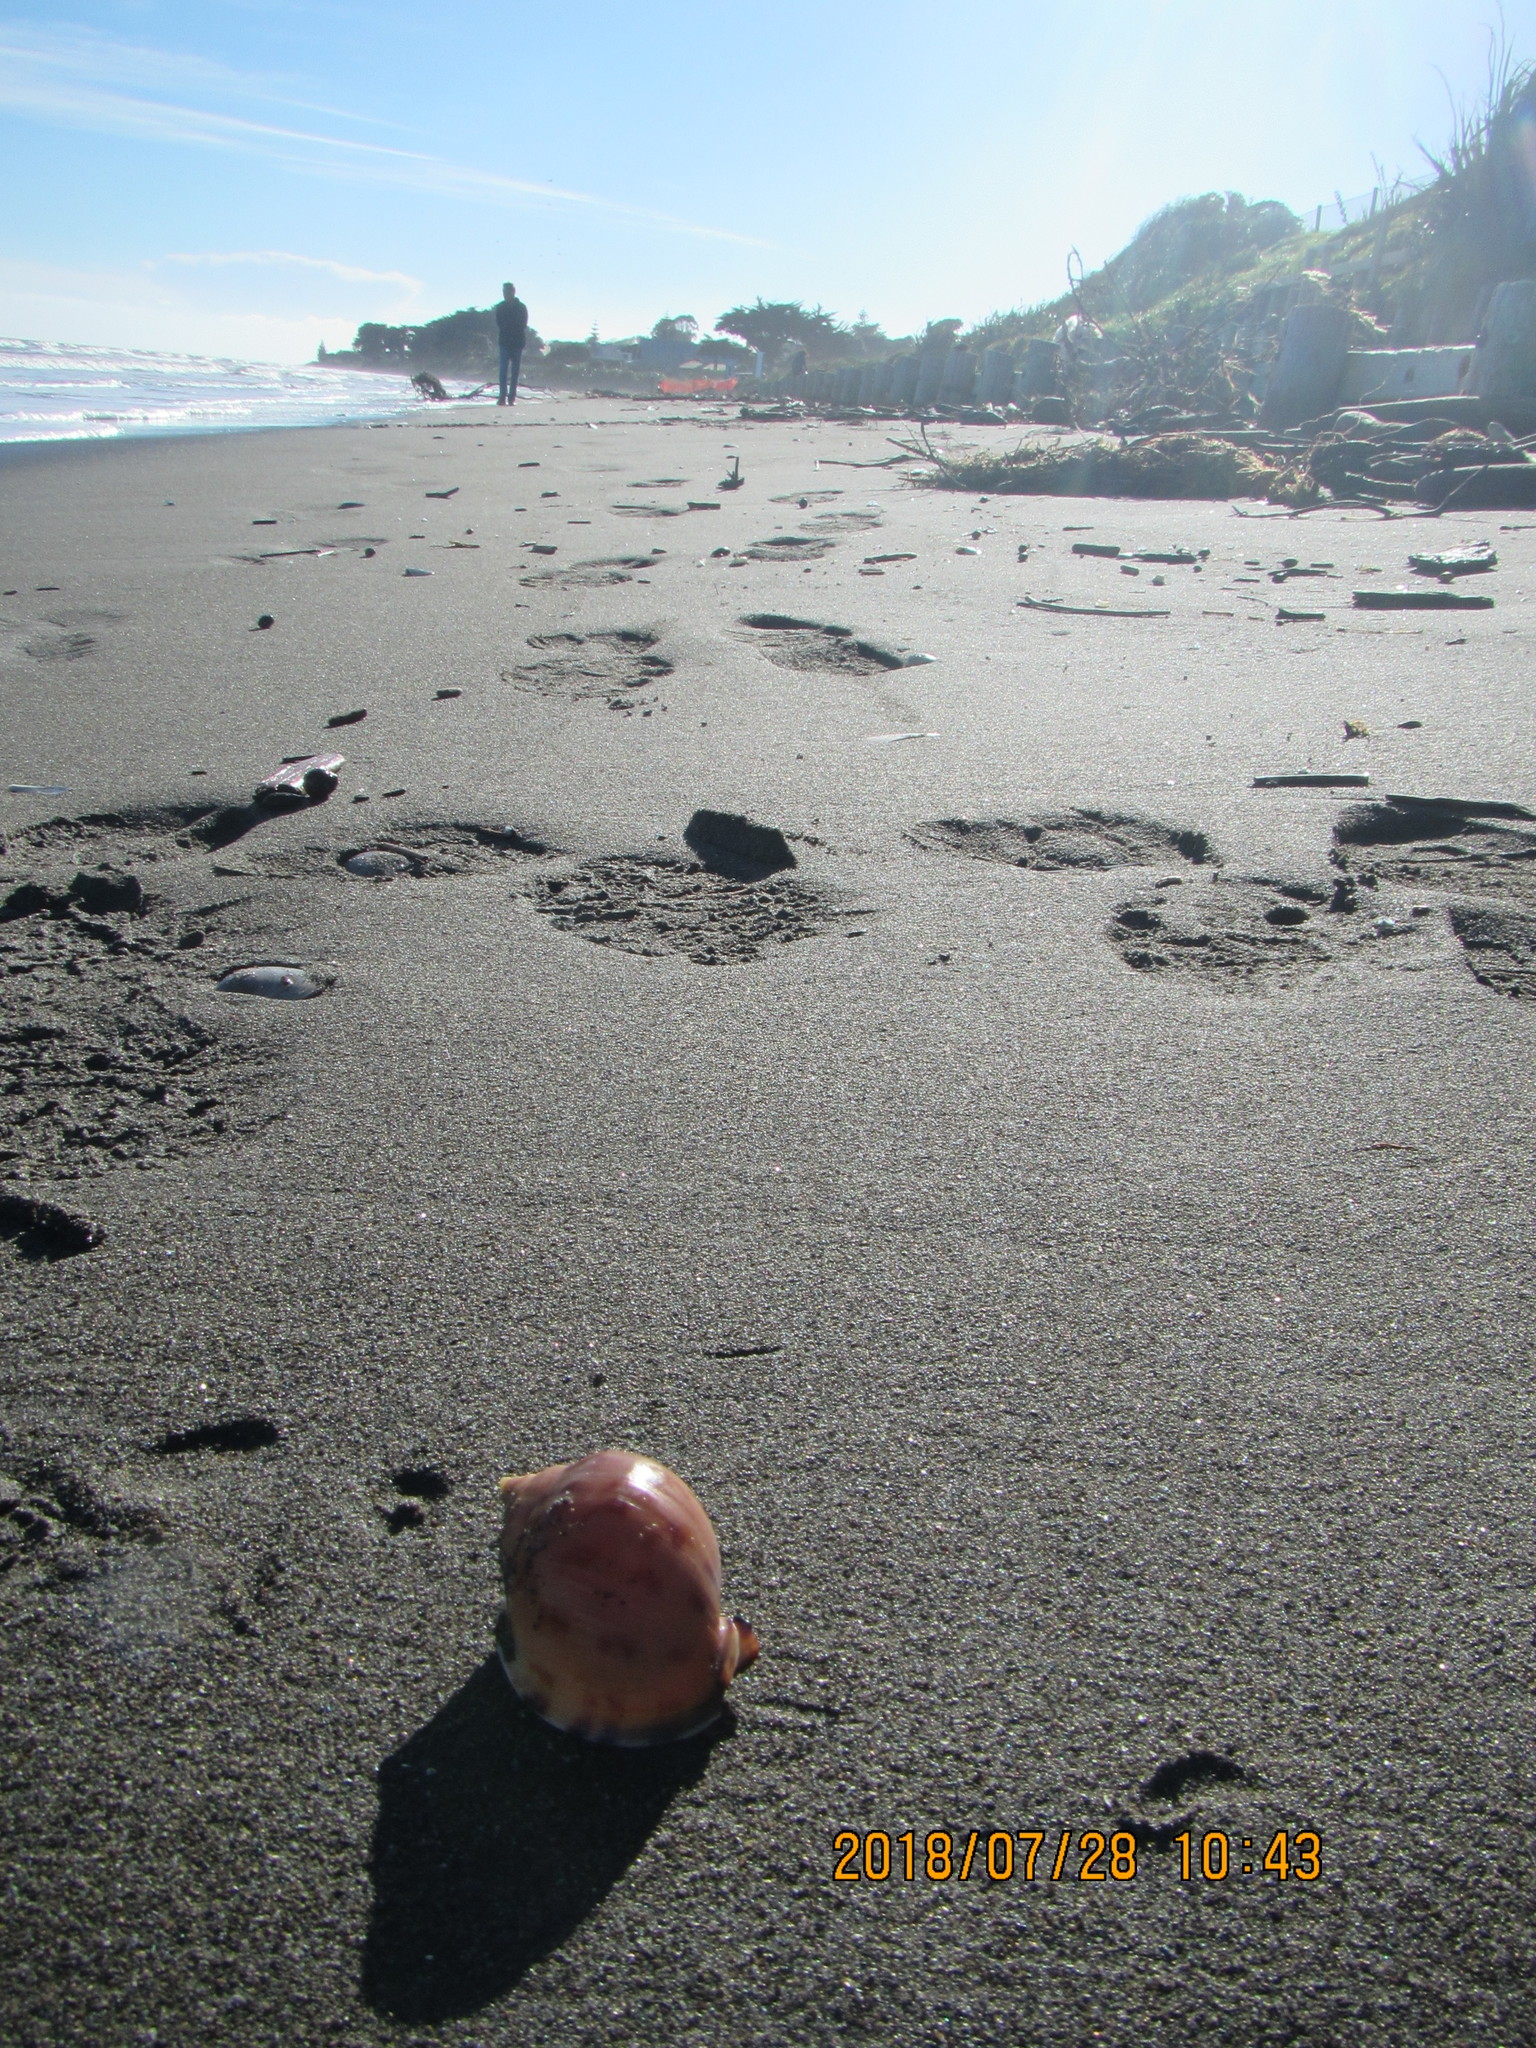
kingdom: Animalia
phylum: Mollusca
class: Gastropoda
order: Littorinimorpha
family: Cassidae
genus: Semicassis
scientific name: Semicassis pyrum
